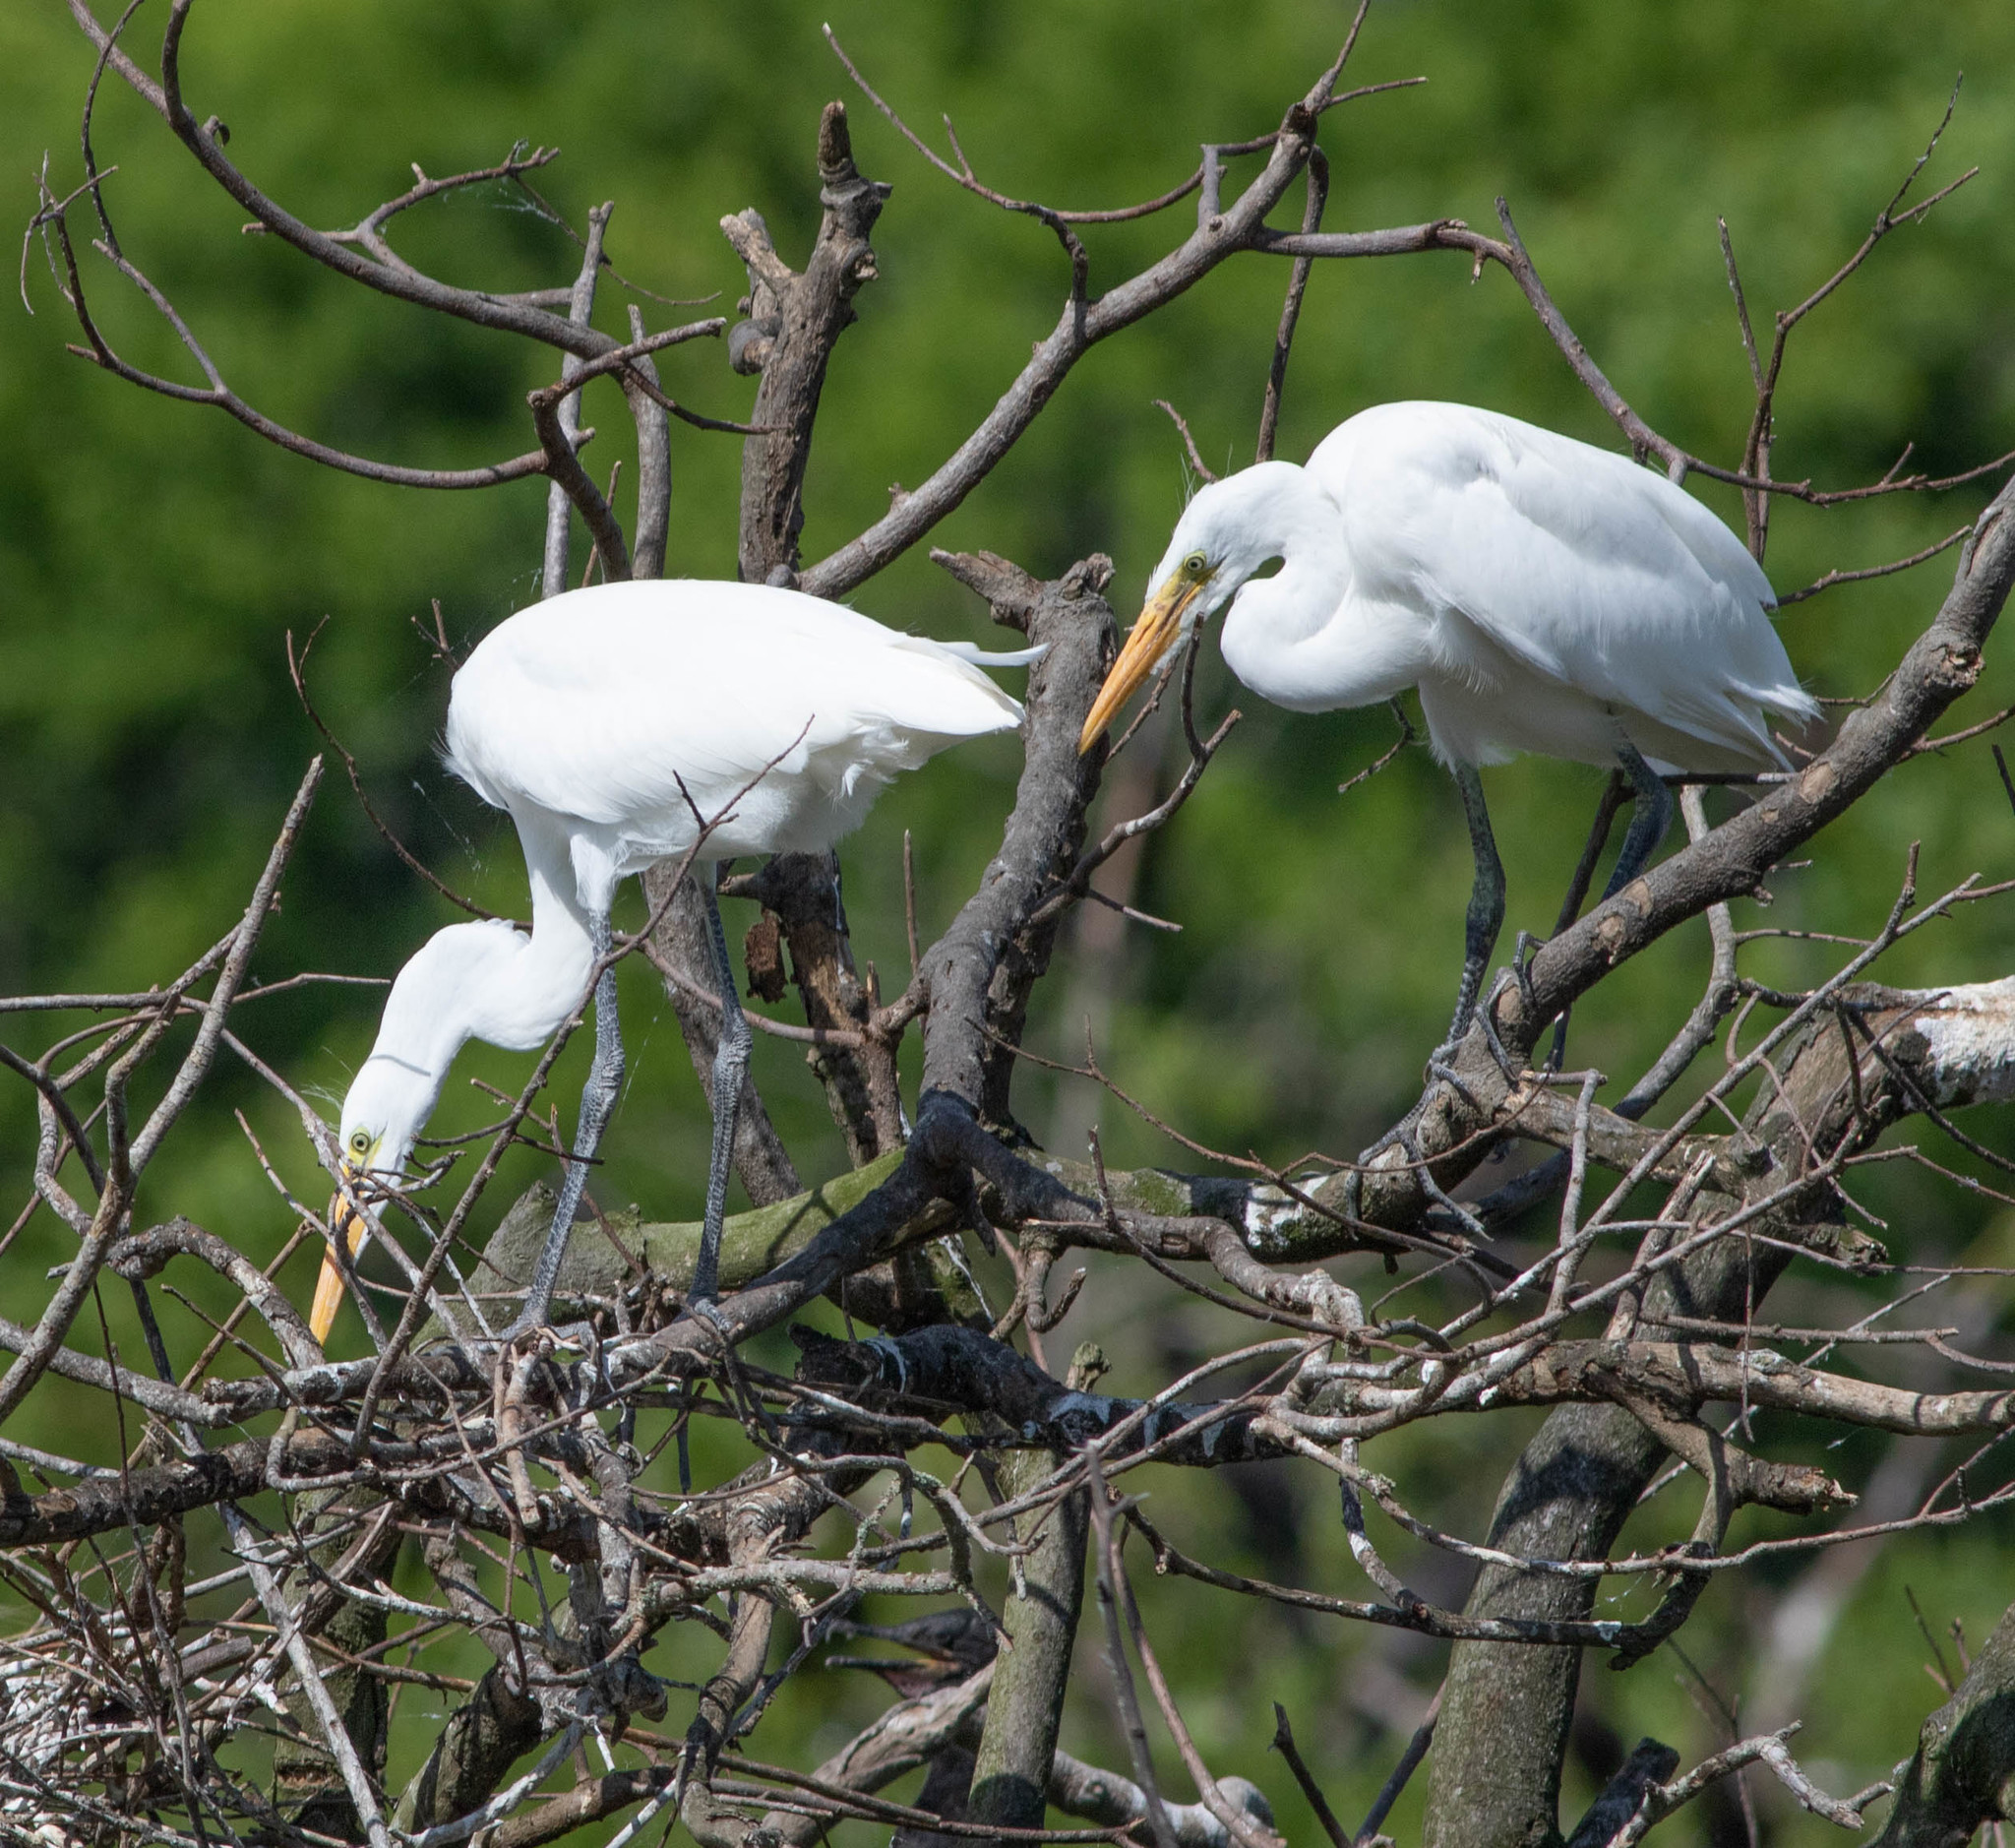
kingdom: Animalia
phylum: Chordata
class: Aves
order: Pelecaniformes
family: Ardeidae
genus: Ardea
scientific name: Ardea alba
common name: Great egret
